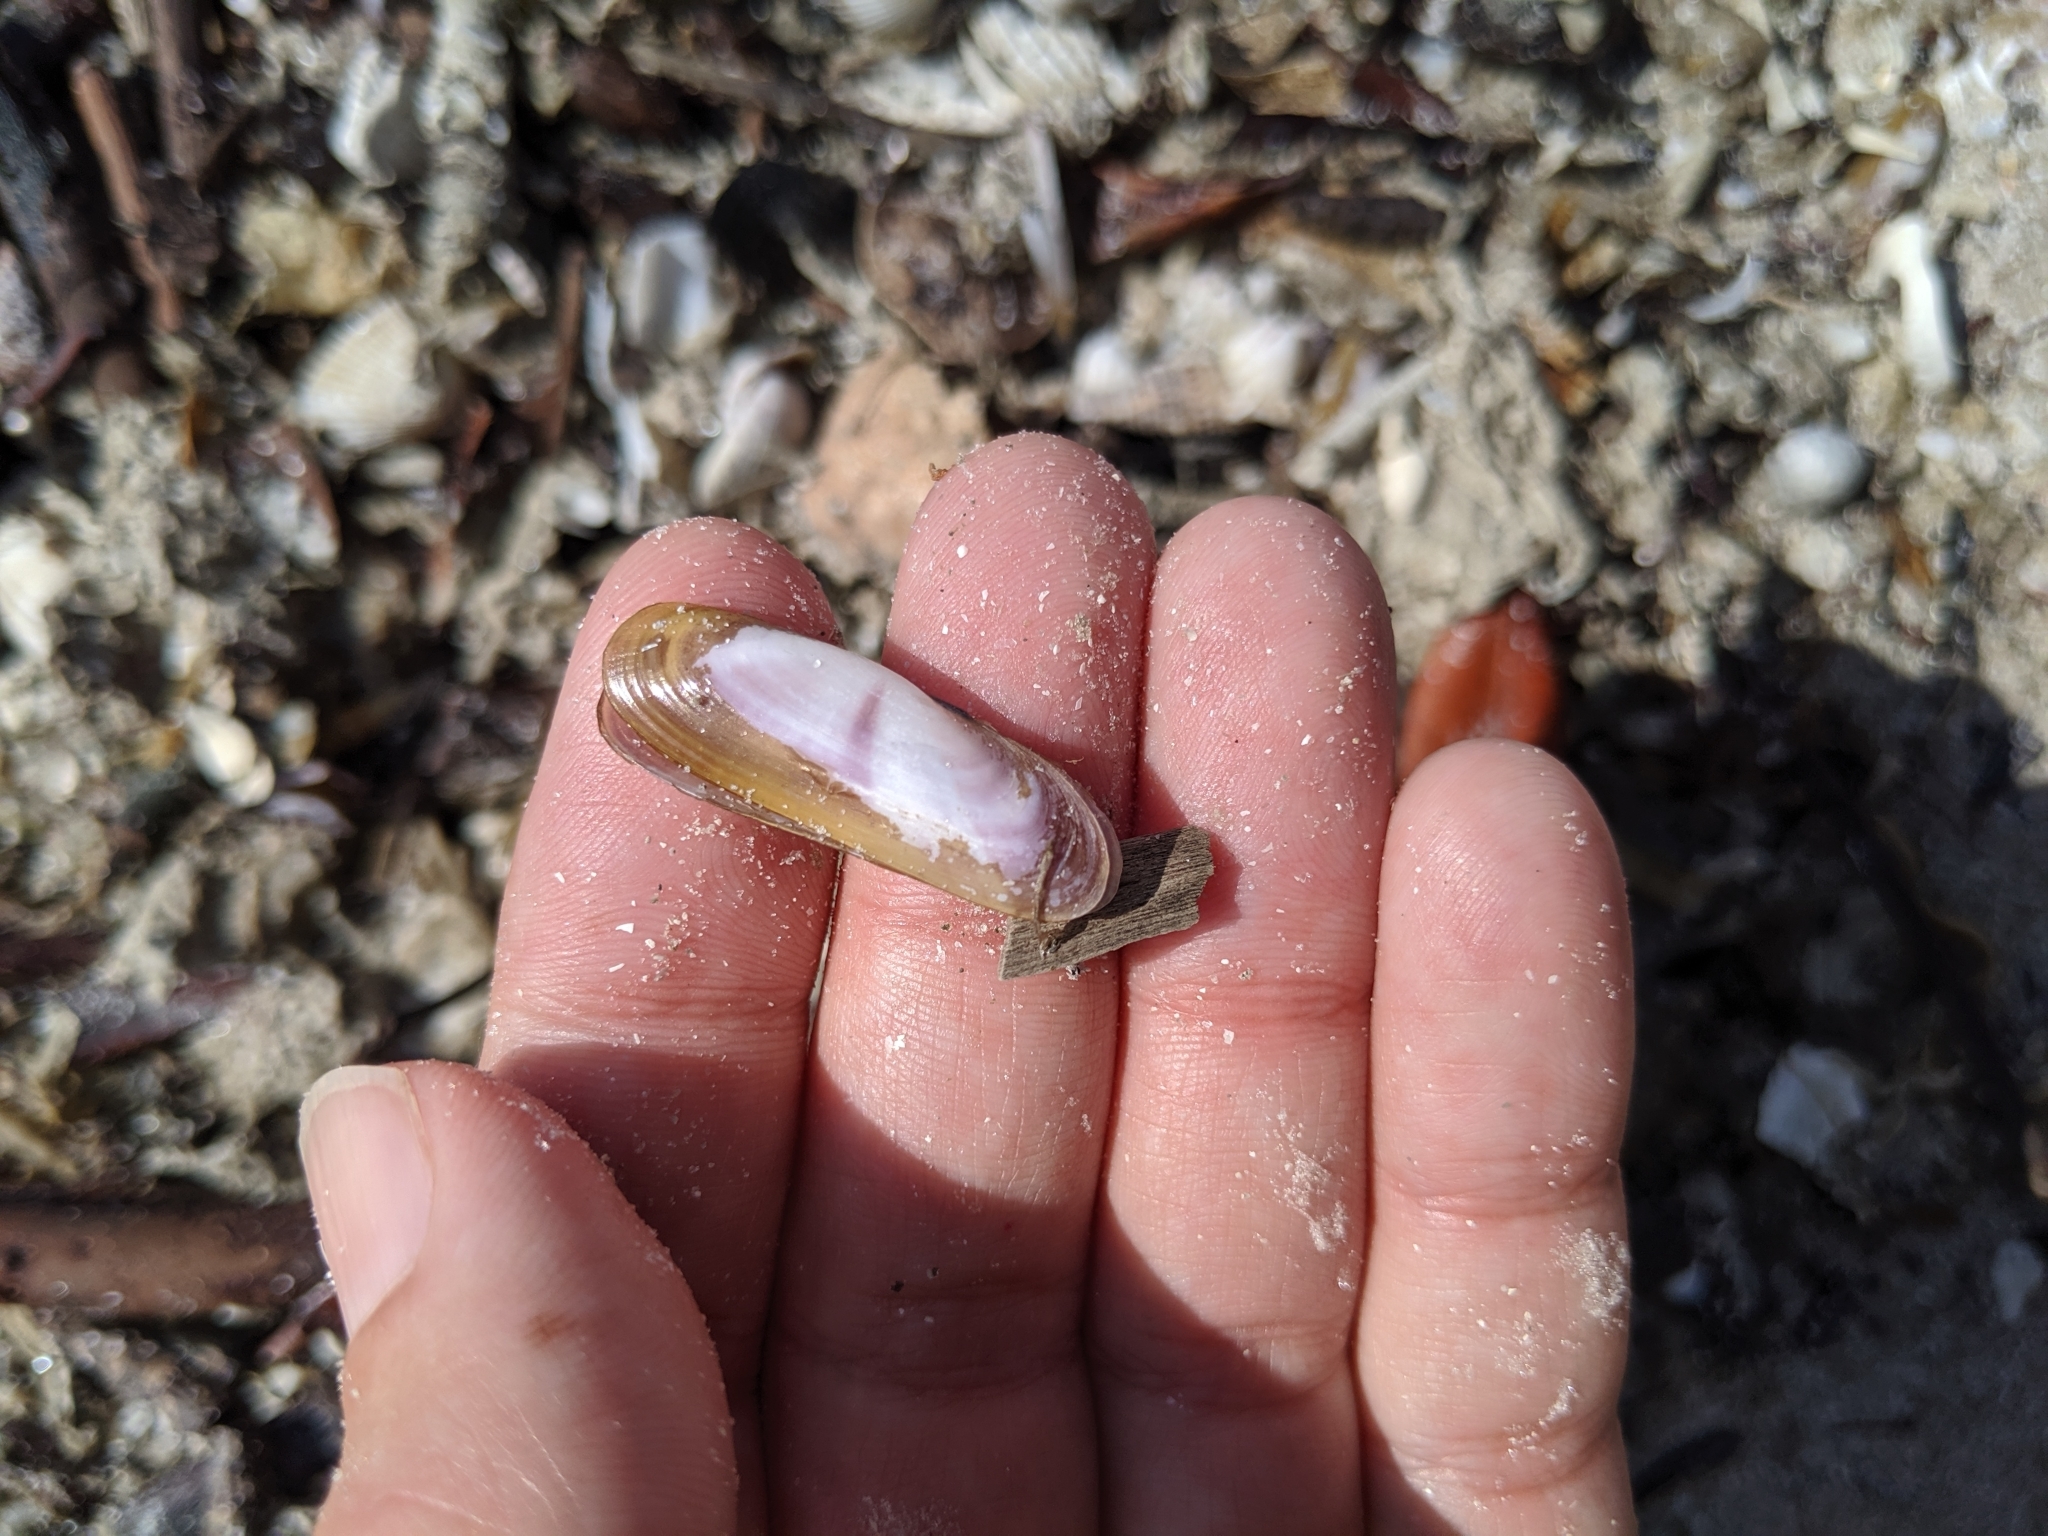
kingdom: Animalia
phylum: Mollusca
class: Bivalvia
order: Cardiida
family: Solecurtidae
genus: Tagelus
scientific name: Tagelus divisus
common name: Purplish tagelus
